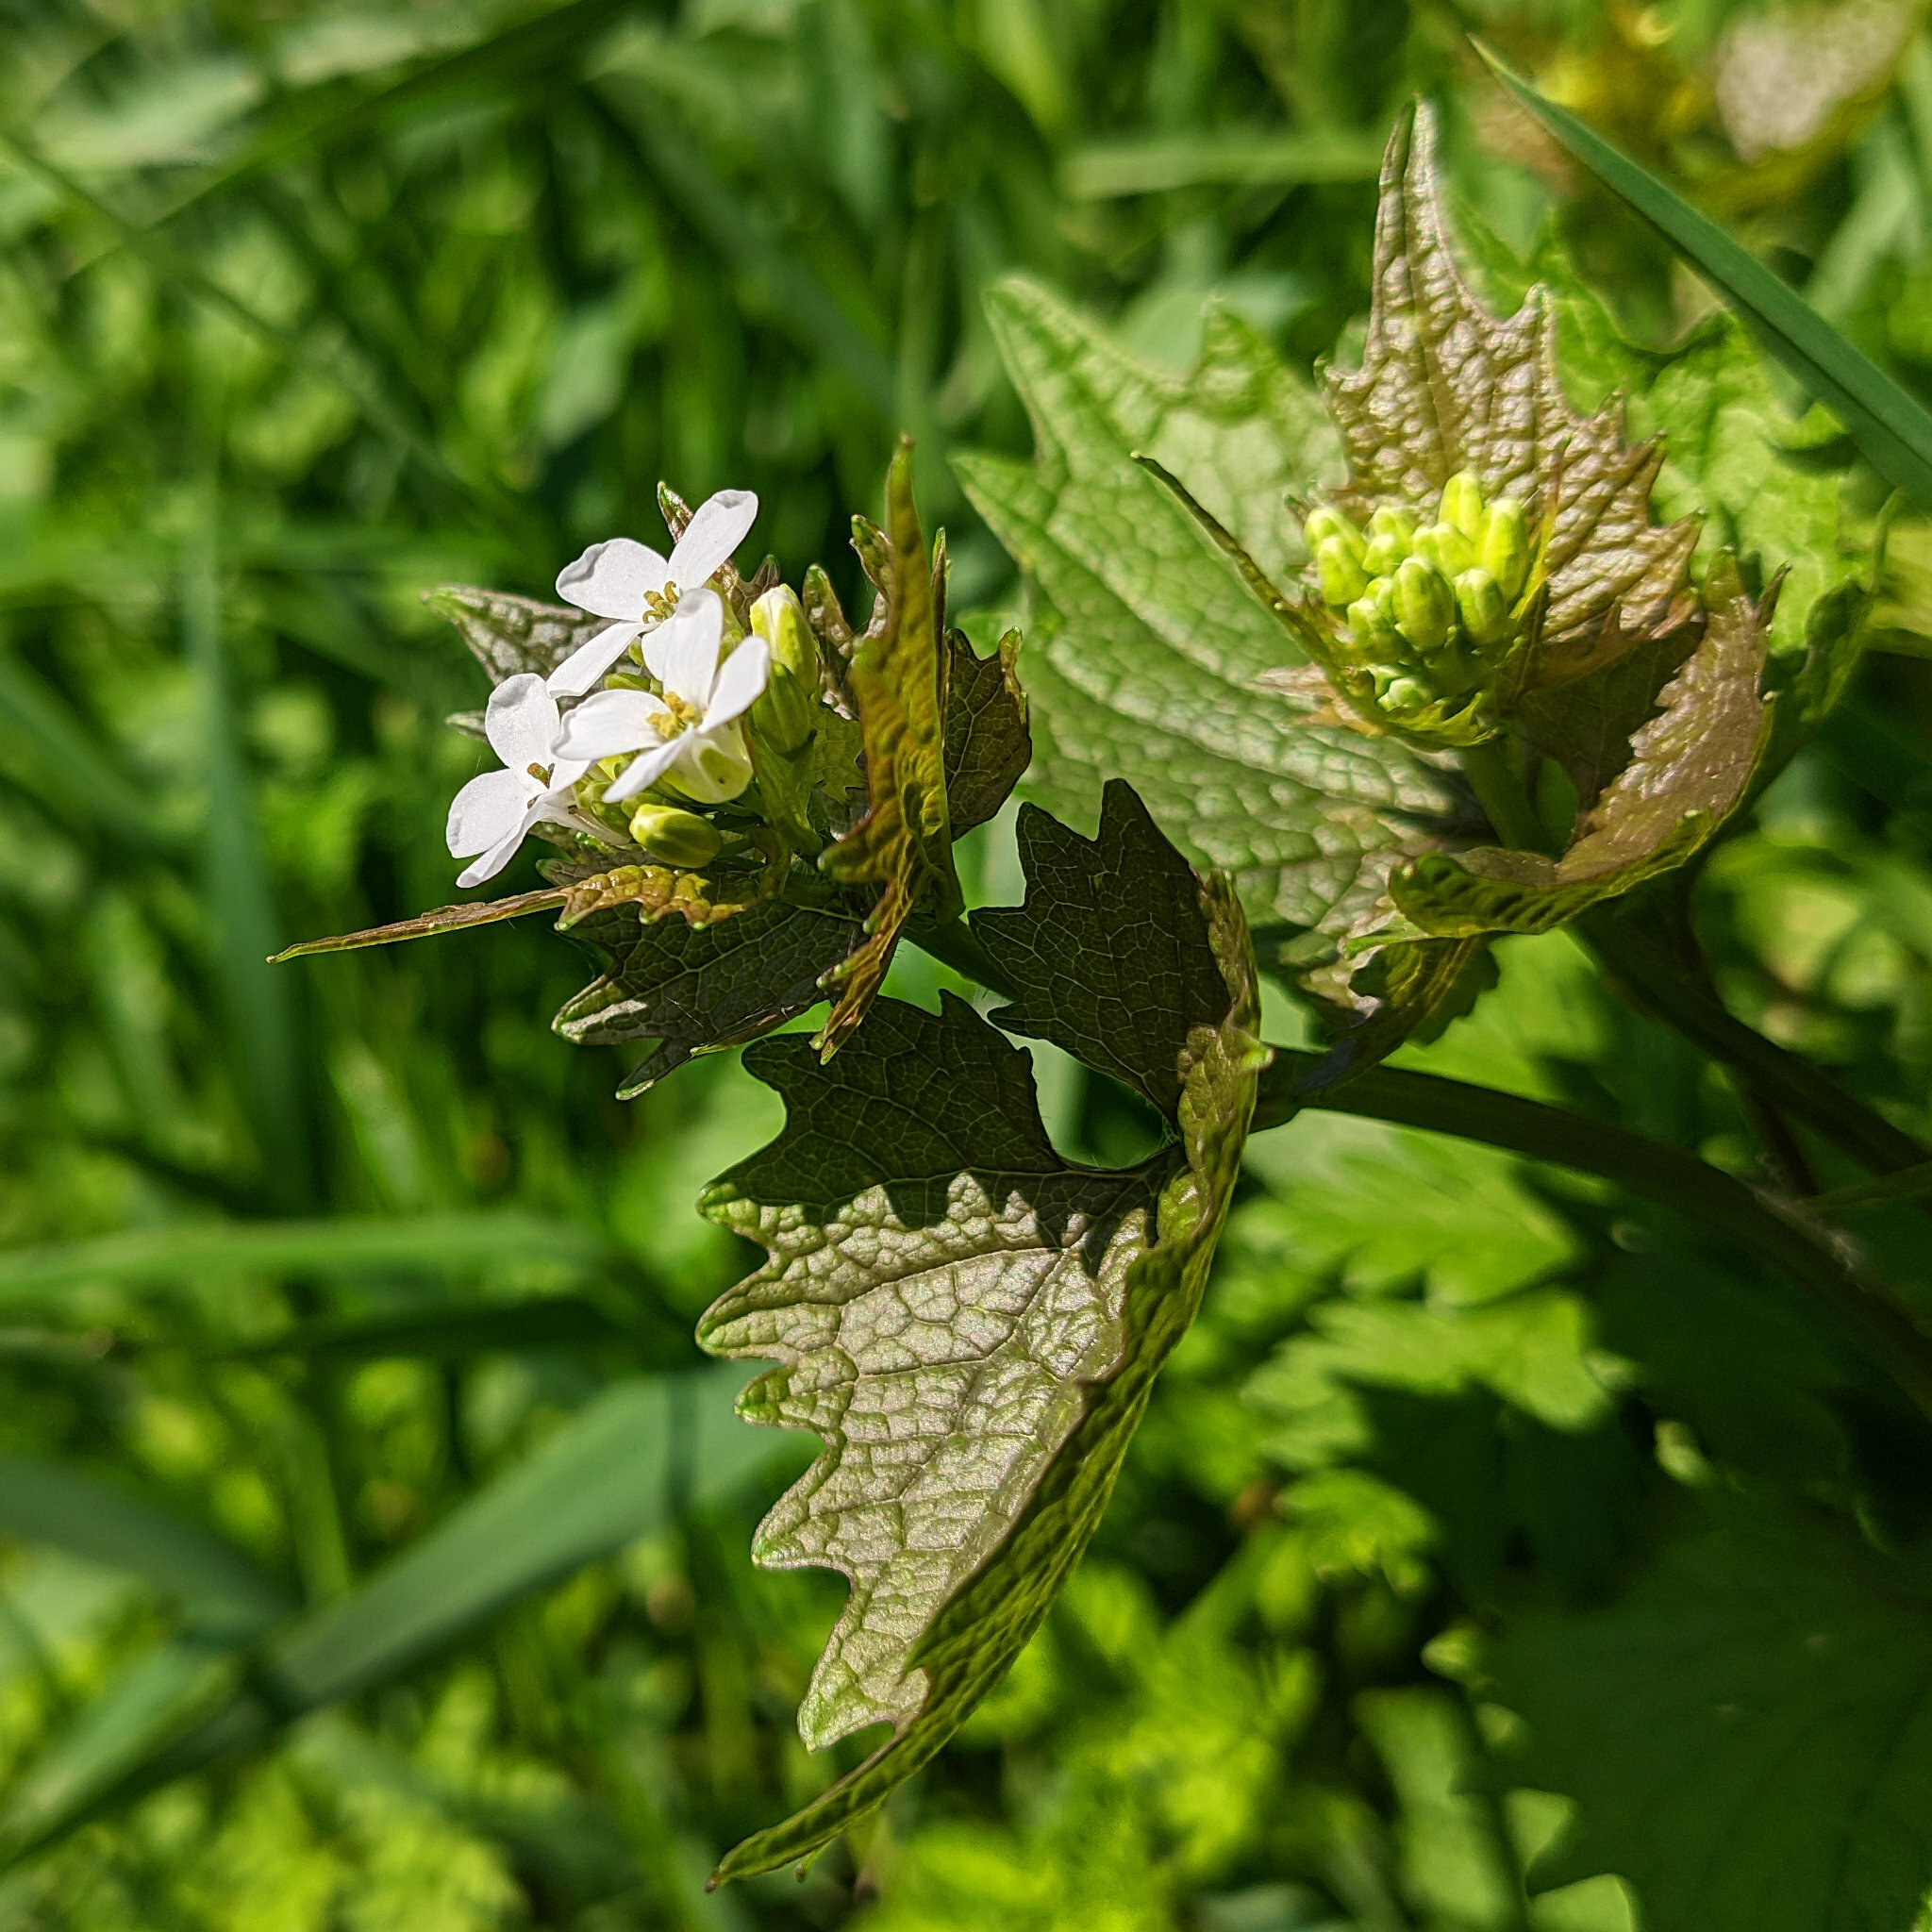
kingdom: Plantae
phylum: Tracheophyta
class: Magnoliopsida
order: Brassicales
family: Brassicaceae
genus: Alliaria
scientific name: Alliaria petiolata
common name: Garlic mustard
